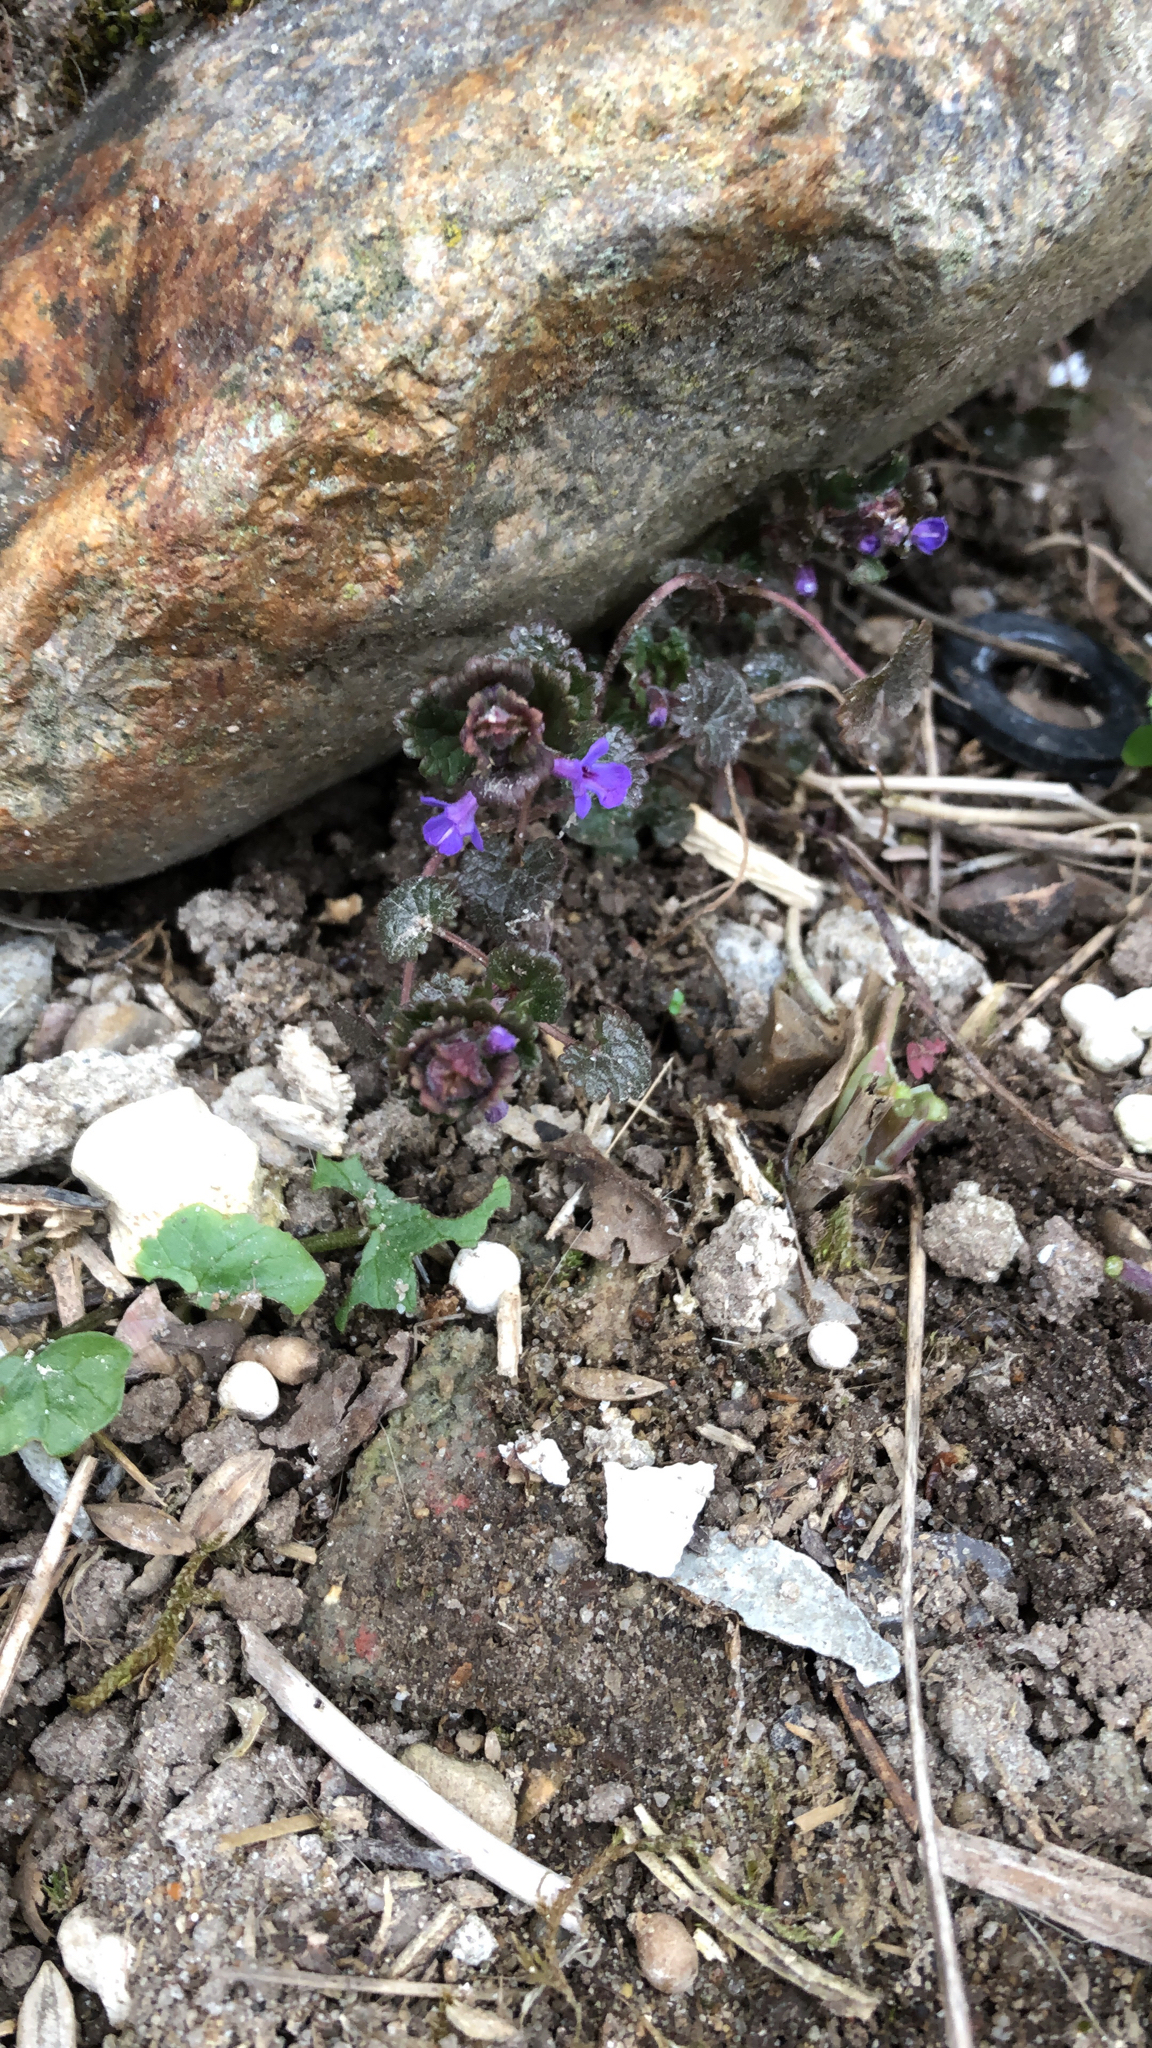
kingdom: Plantae
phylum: Tracheophyta
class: Magnoliopsida
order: Lamiales
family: Lamiaceae
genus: Glechoma
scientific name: Glechoma hederacea
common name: Ground ivy
